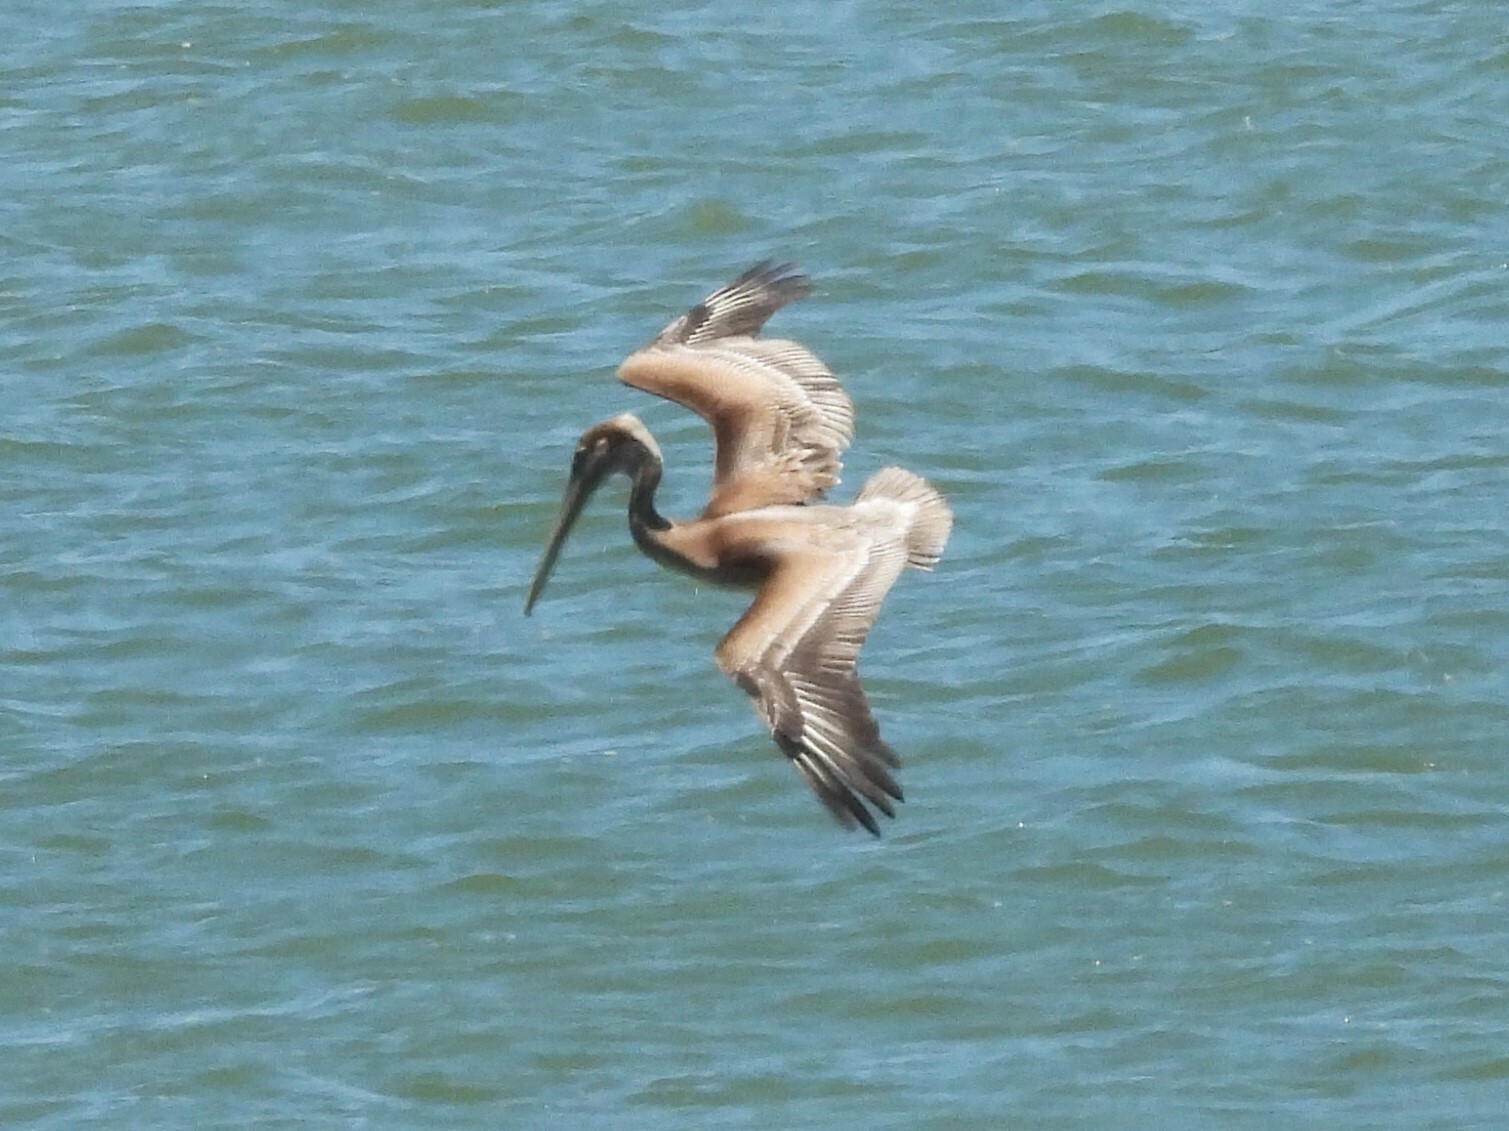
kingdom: Animalia
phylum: Chordata
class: Aves
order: Pelecaniformes
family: Pelecanidae
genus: Pelecanus
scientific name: Pelecanus occidentalis
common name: Brown pelican
